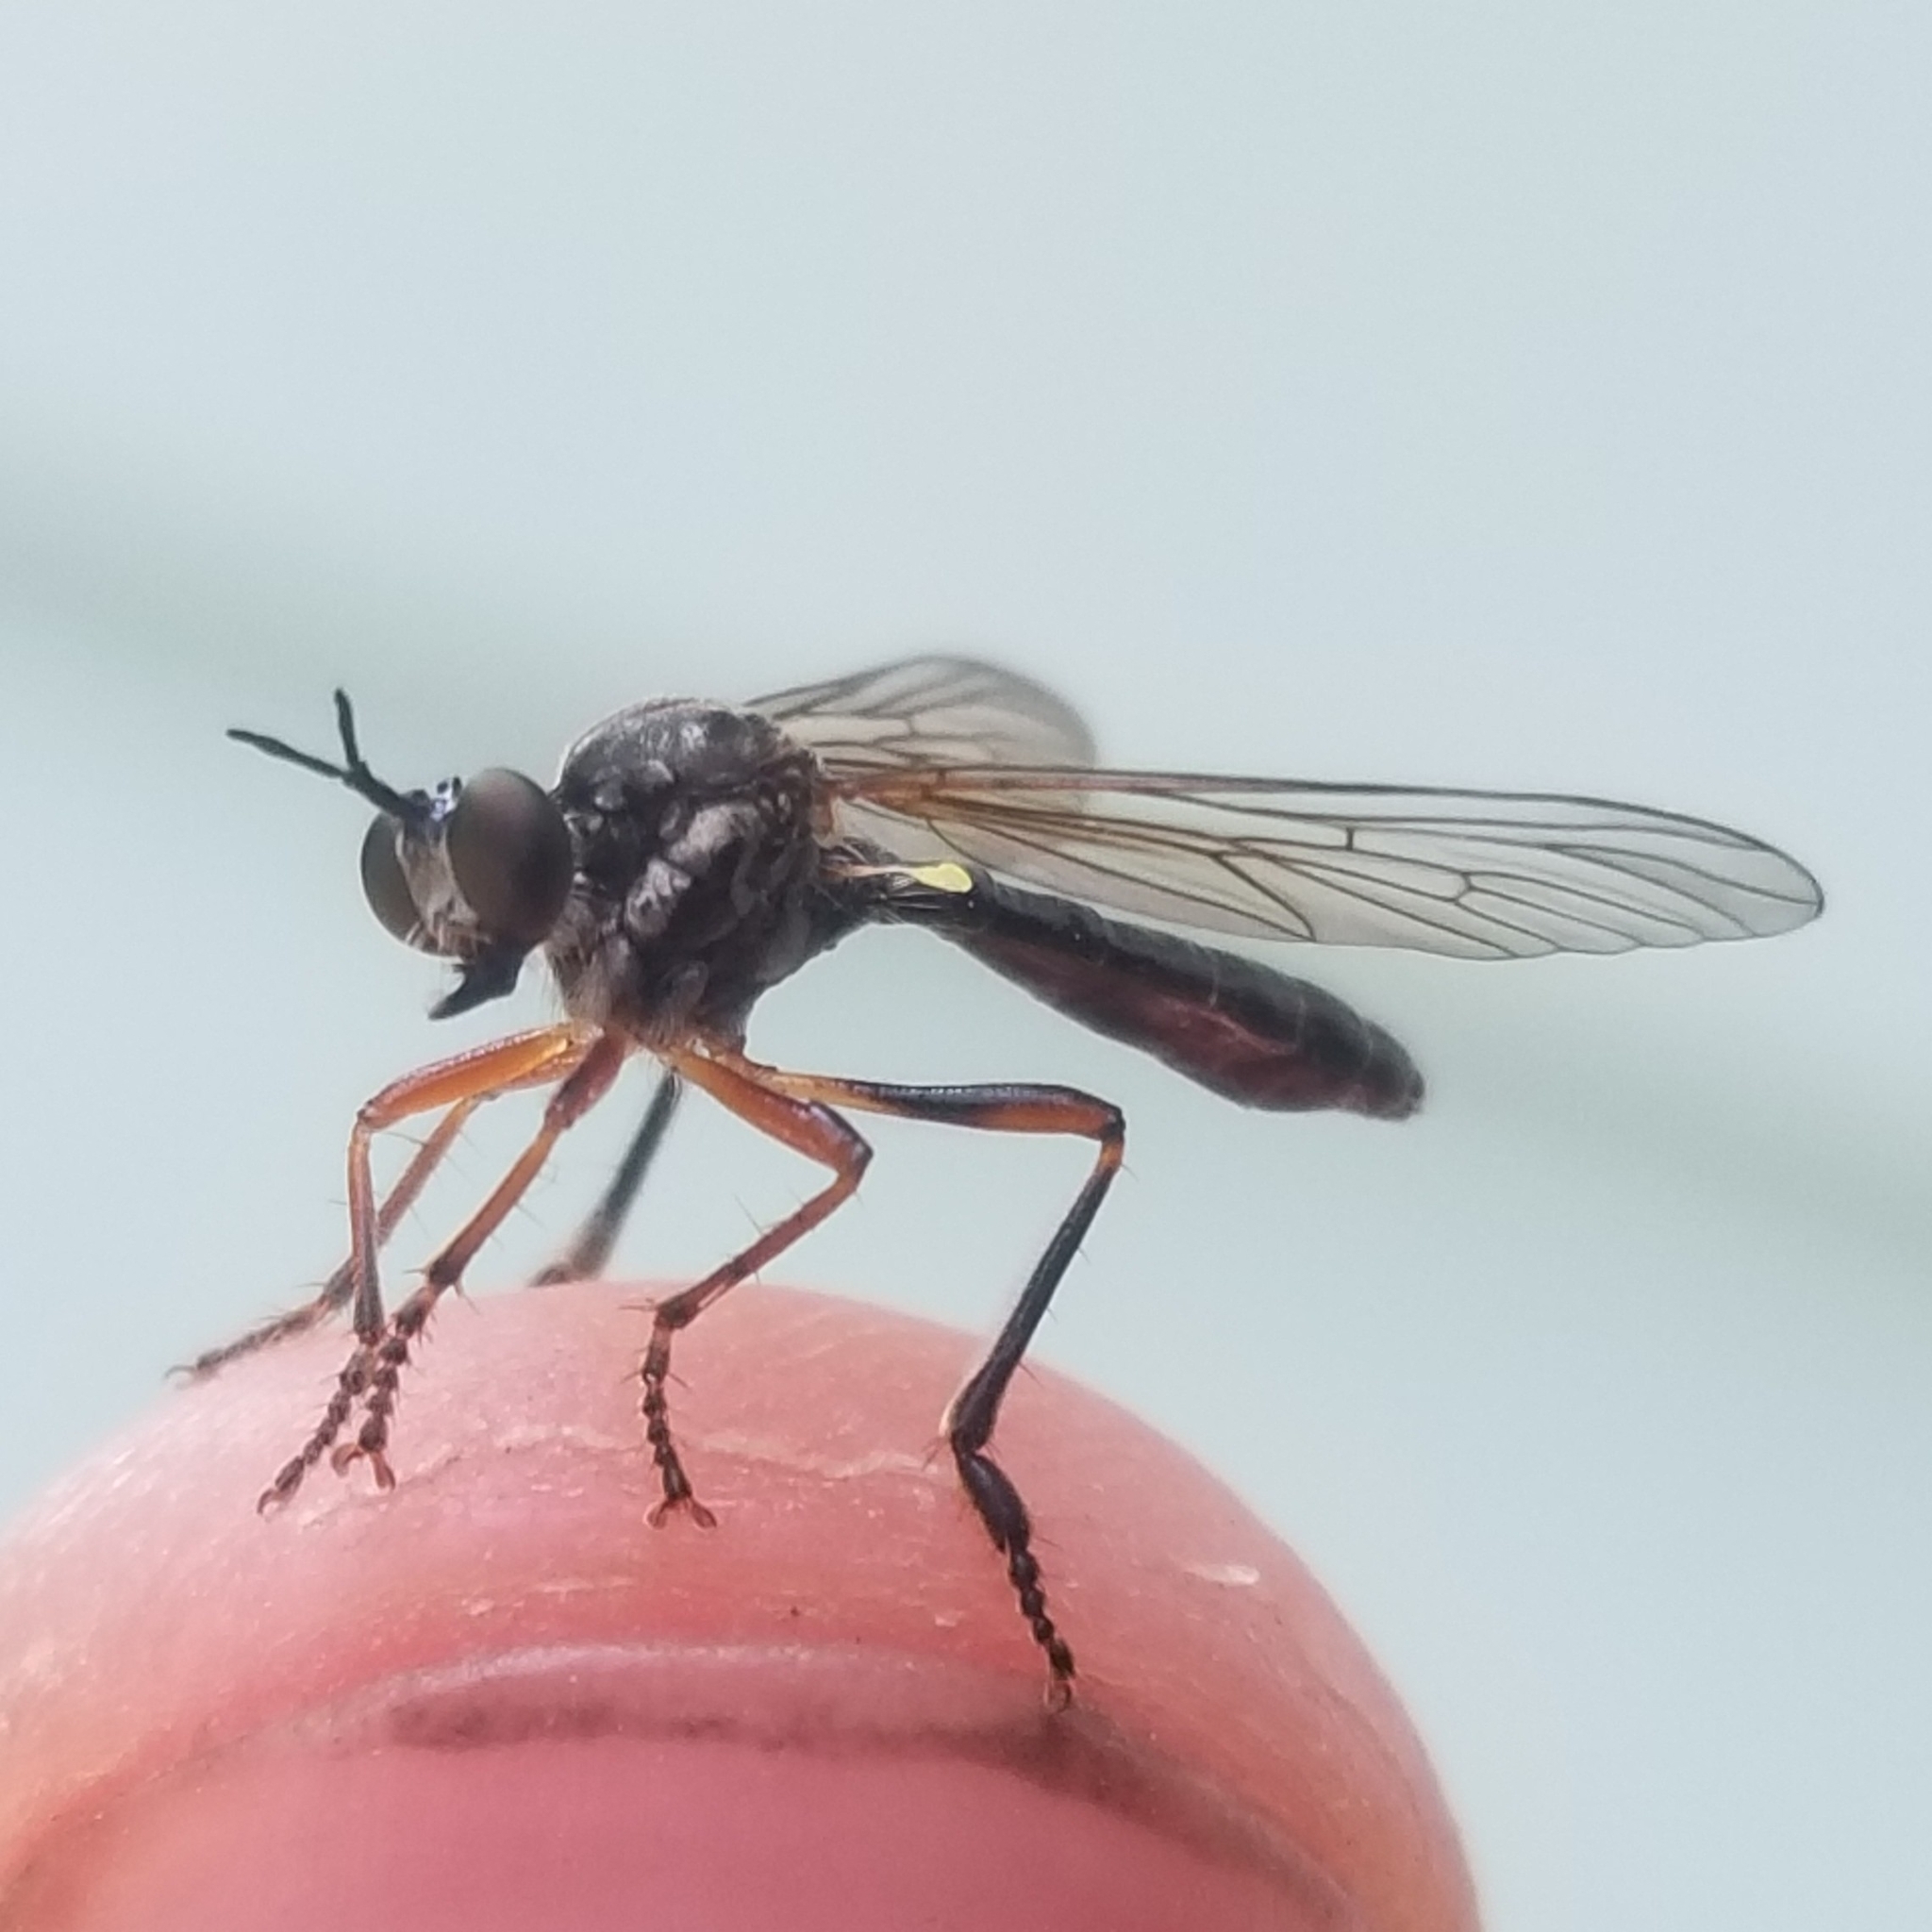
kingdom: Animalia
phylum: Arthropoda
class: Insecta
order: Diptera
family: Asilidae
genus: Dioctria
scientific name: Dioctria hyalipennis
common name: Stripe-legged robberfly
